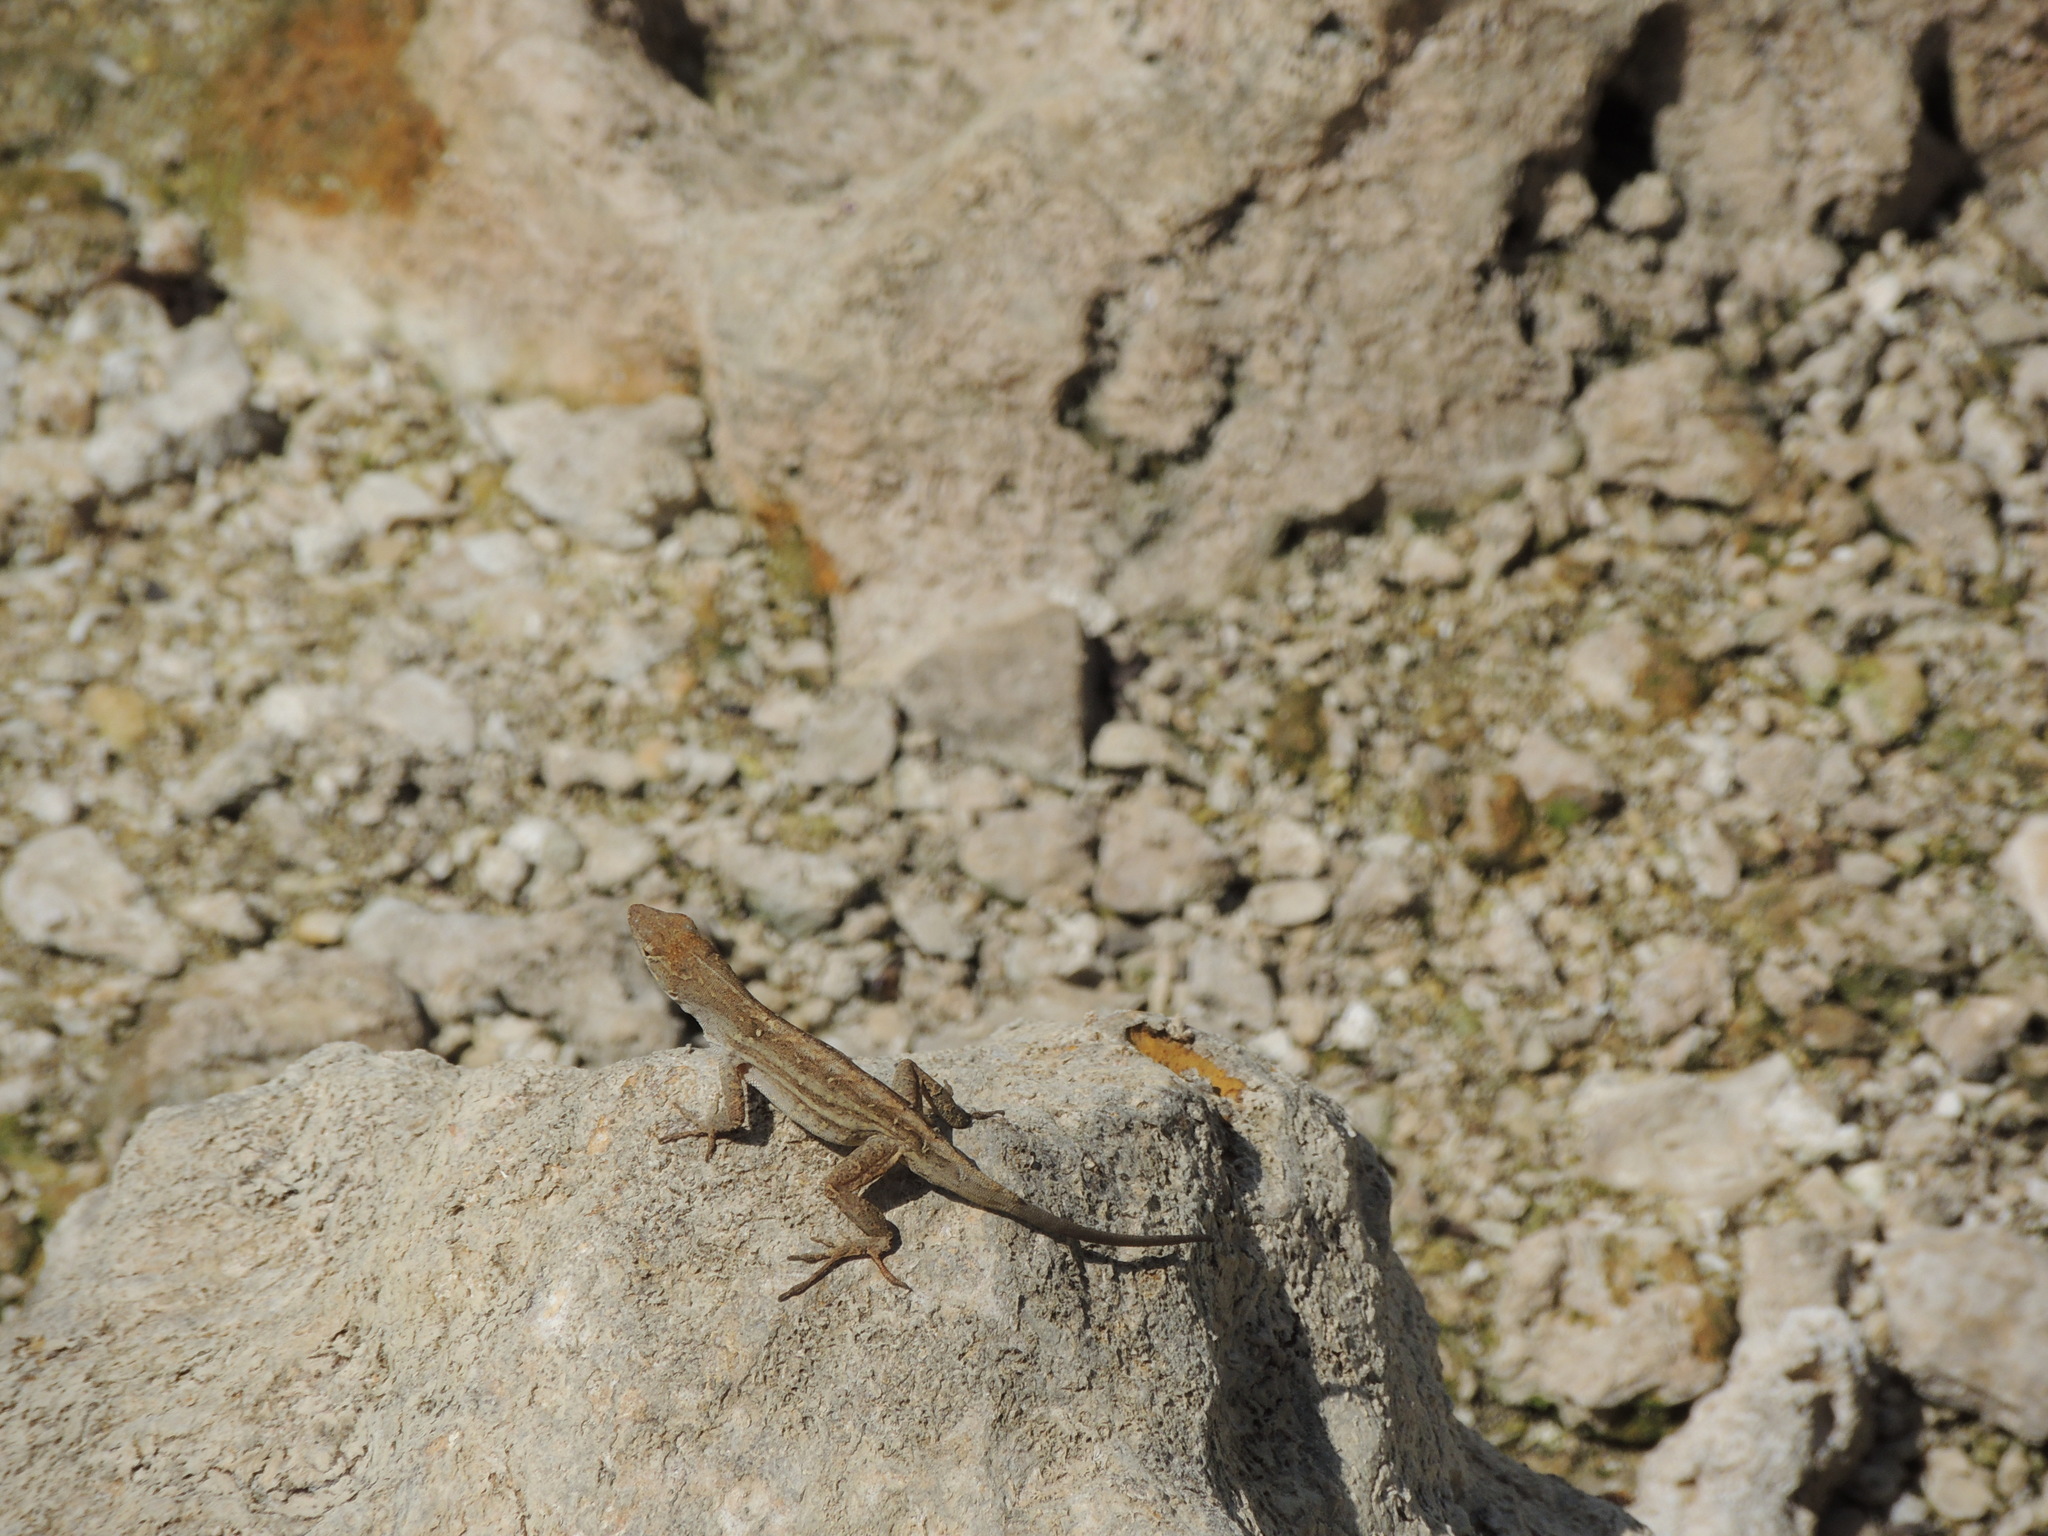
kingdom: Animalia
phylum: Chordata
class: Squamata
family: Dactyloidae
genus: Anolis
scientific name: Anolis sagrei
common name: Brown anole
